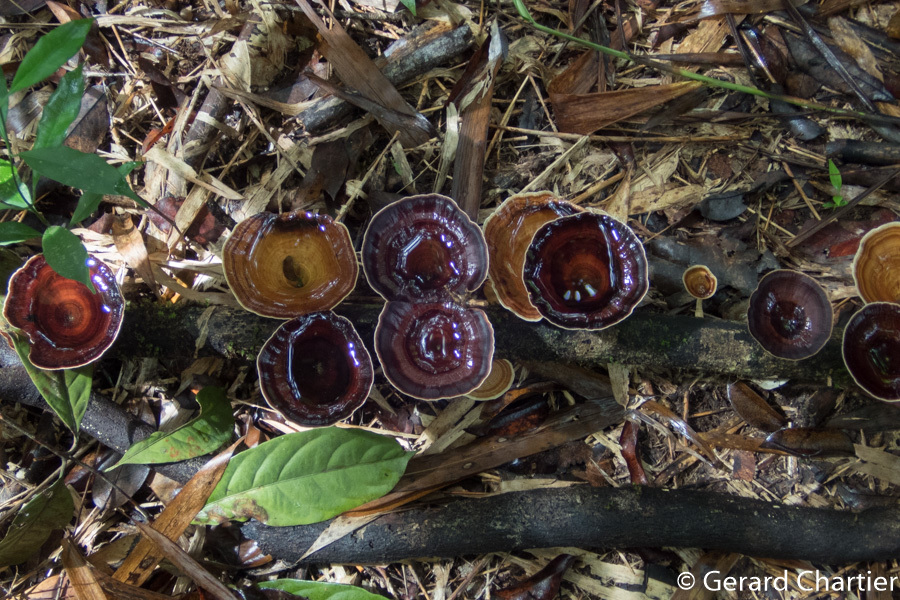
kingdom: Fungi
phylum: Basidiomycota
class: Agaricomycetes
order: Polyporales
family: Polyporaceae
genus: Microporus
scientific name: Microporus xanthopus
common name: Yellow-stemmed micropore
